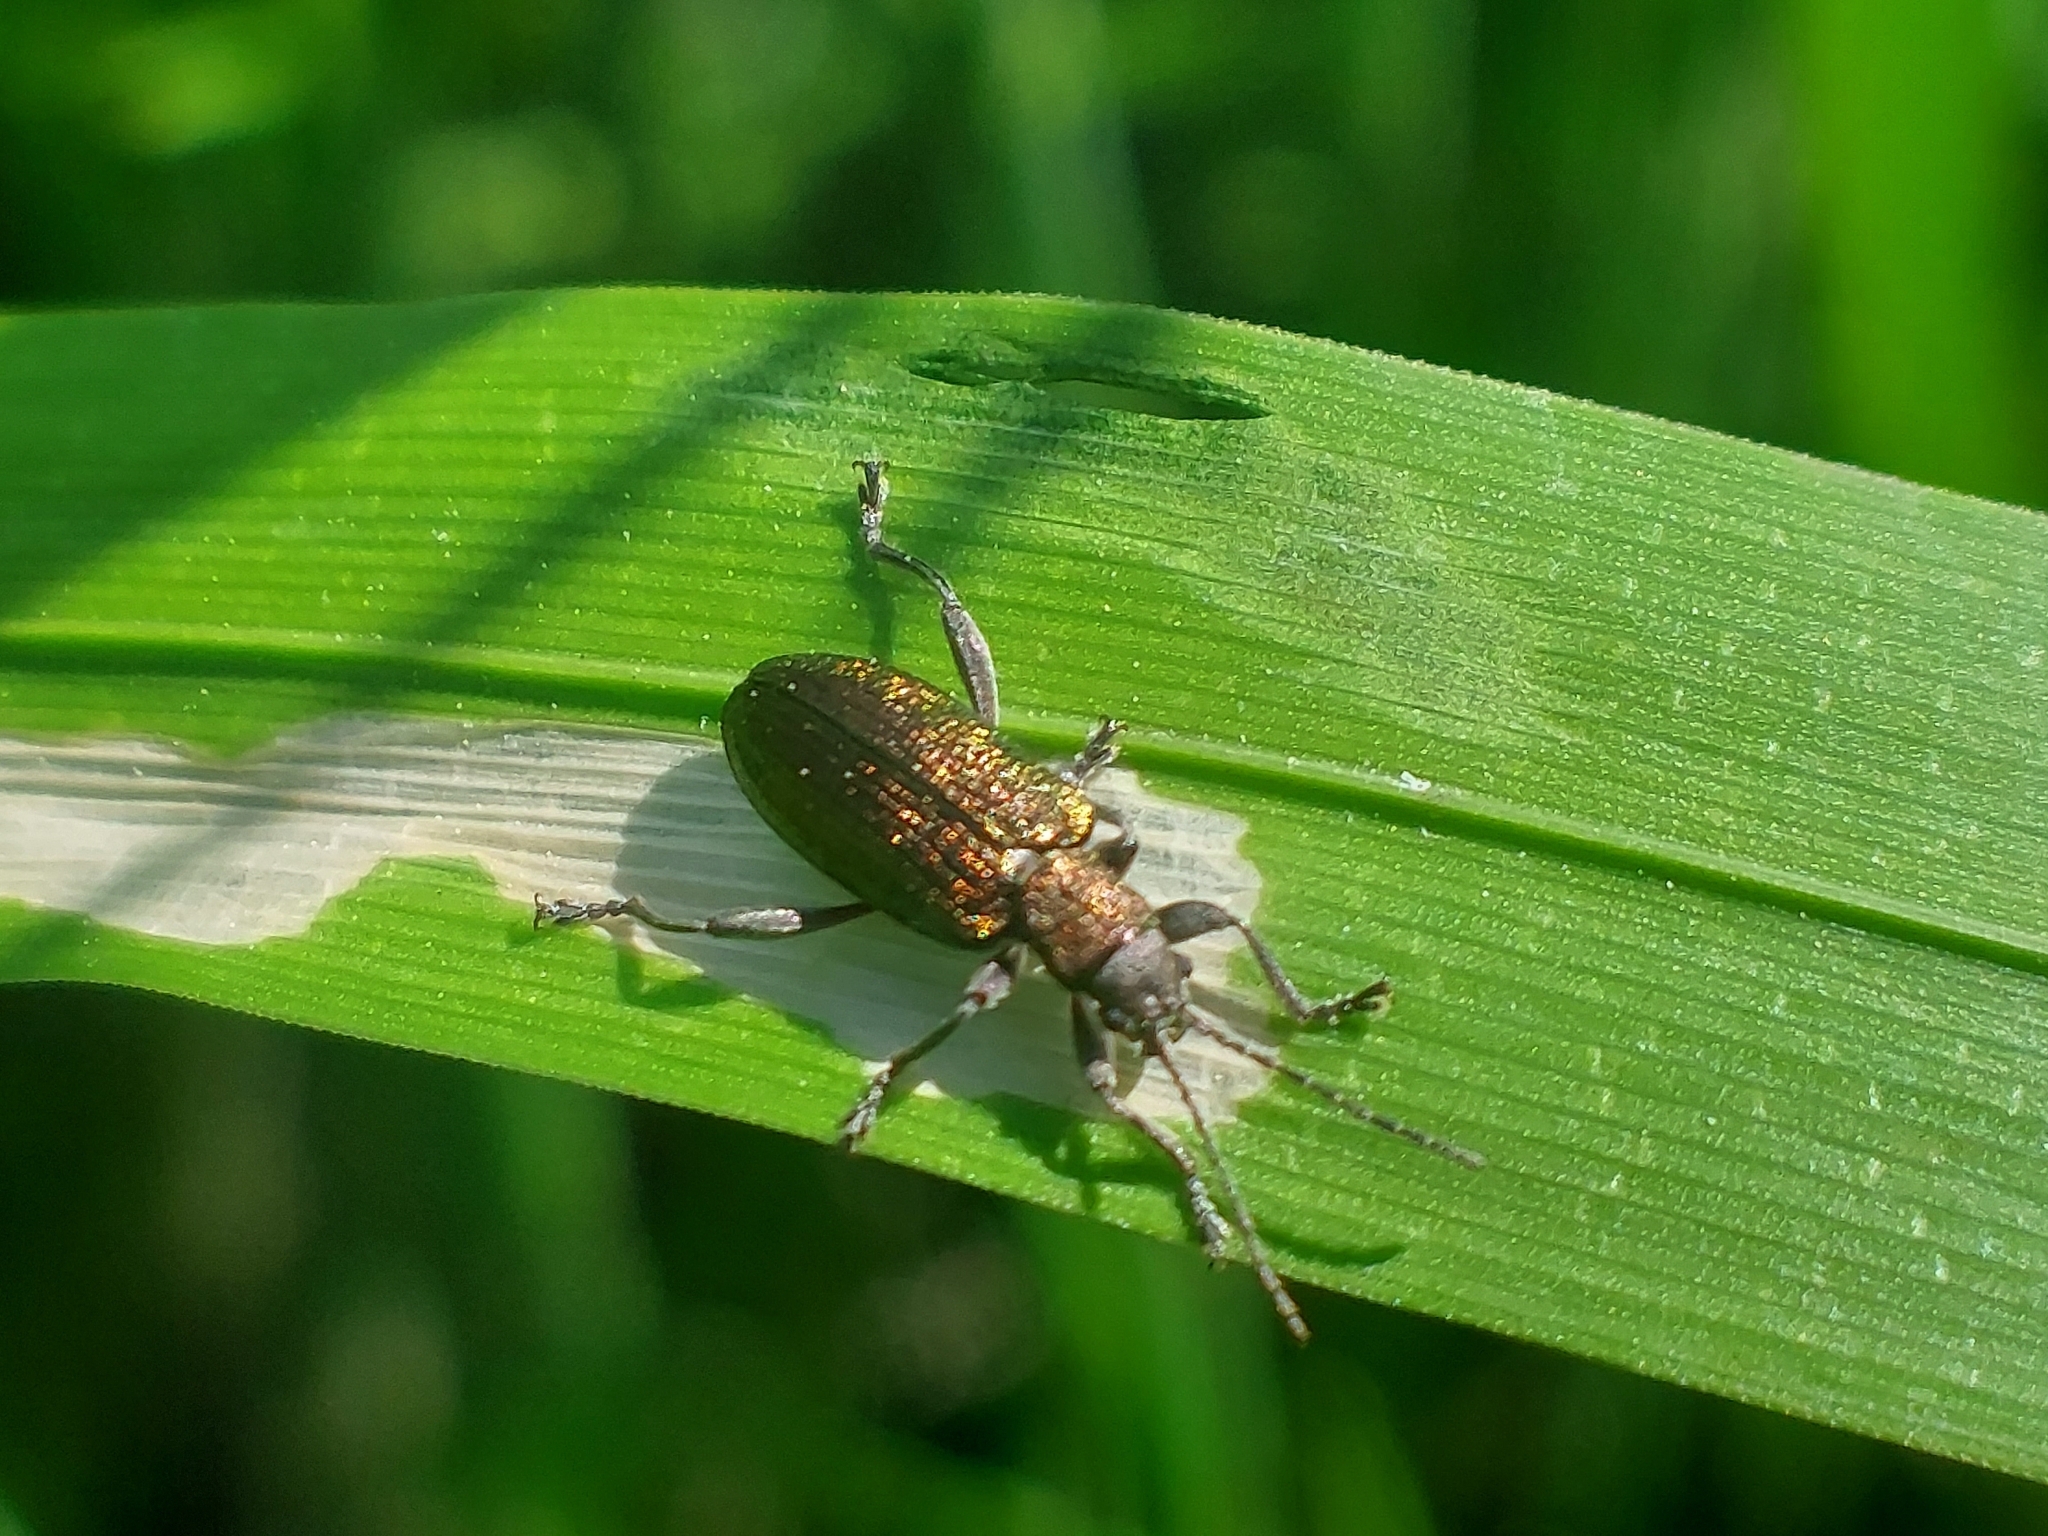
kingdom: Animalia
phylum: Arthropoda
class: Insecta
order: Coleoptera
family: Chrysomelidae
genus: Donacia
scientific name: Donacia semicuprea
